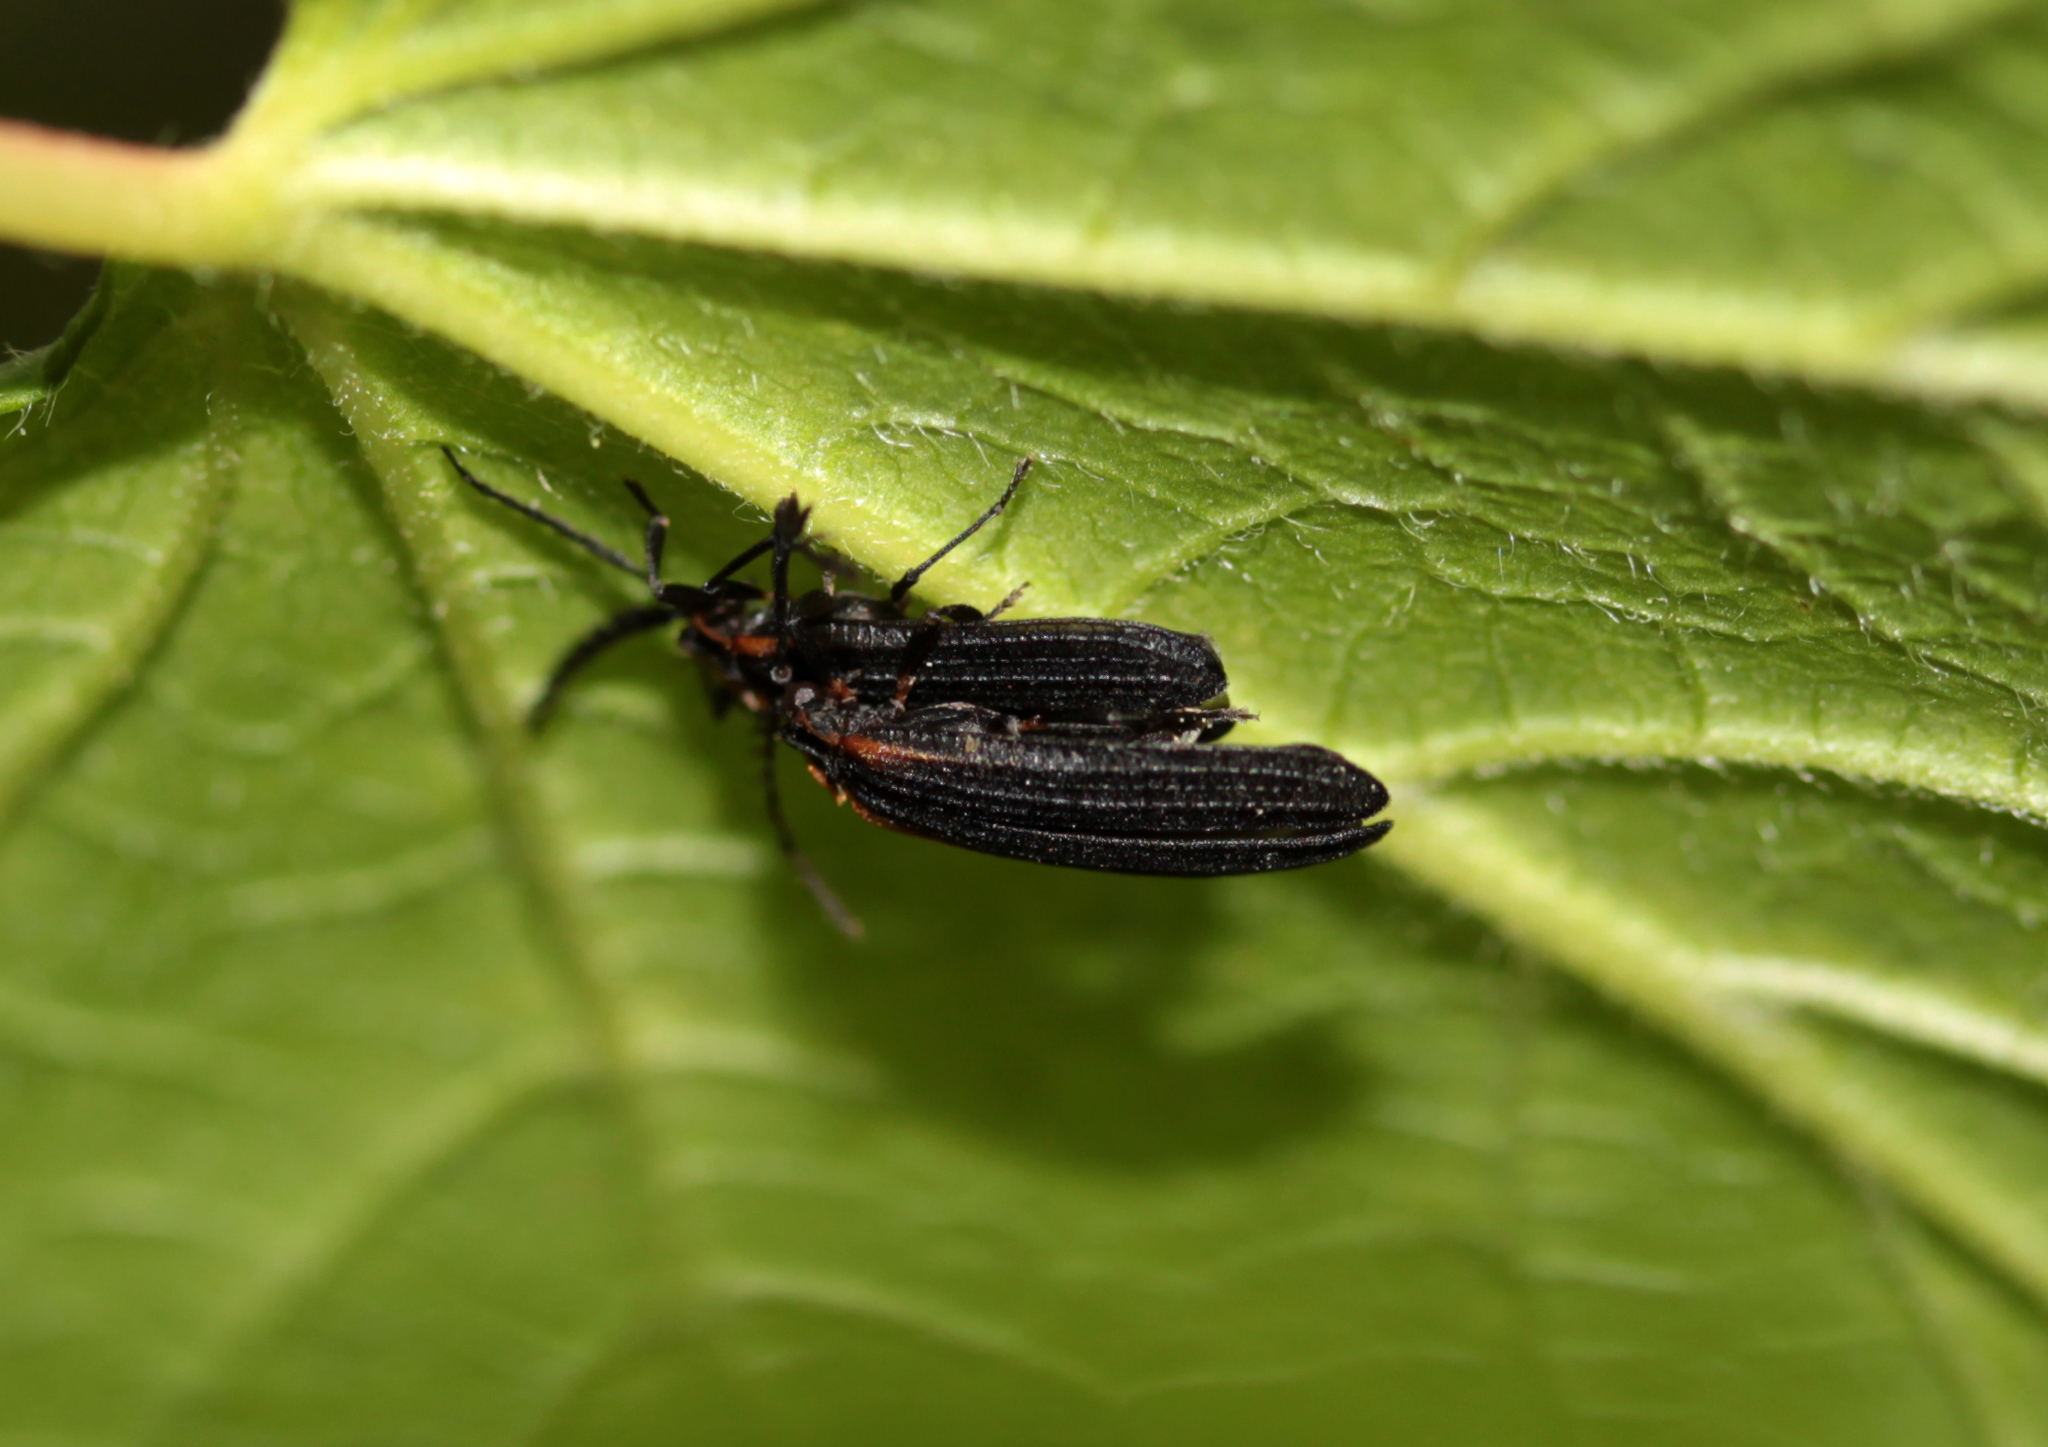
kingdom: Animalia
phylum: Arthropoda
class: Insecta
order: Coleoptera
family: Lycidae
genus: Leptoceletes
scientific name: Leptoceletes basalis
